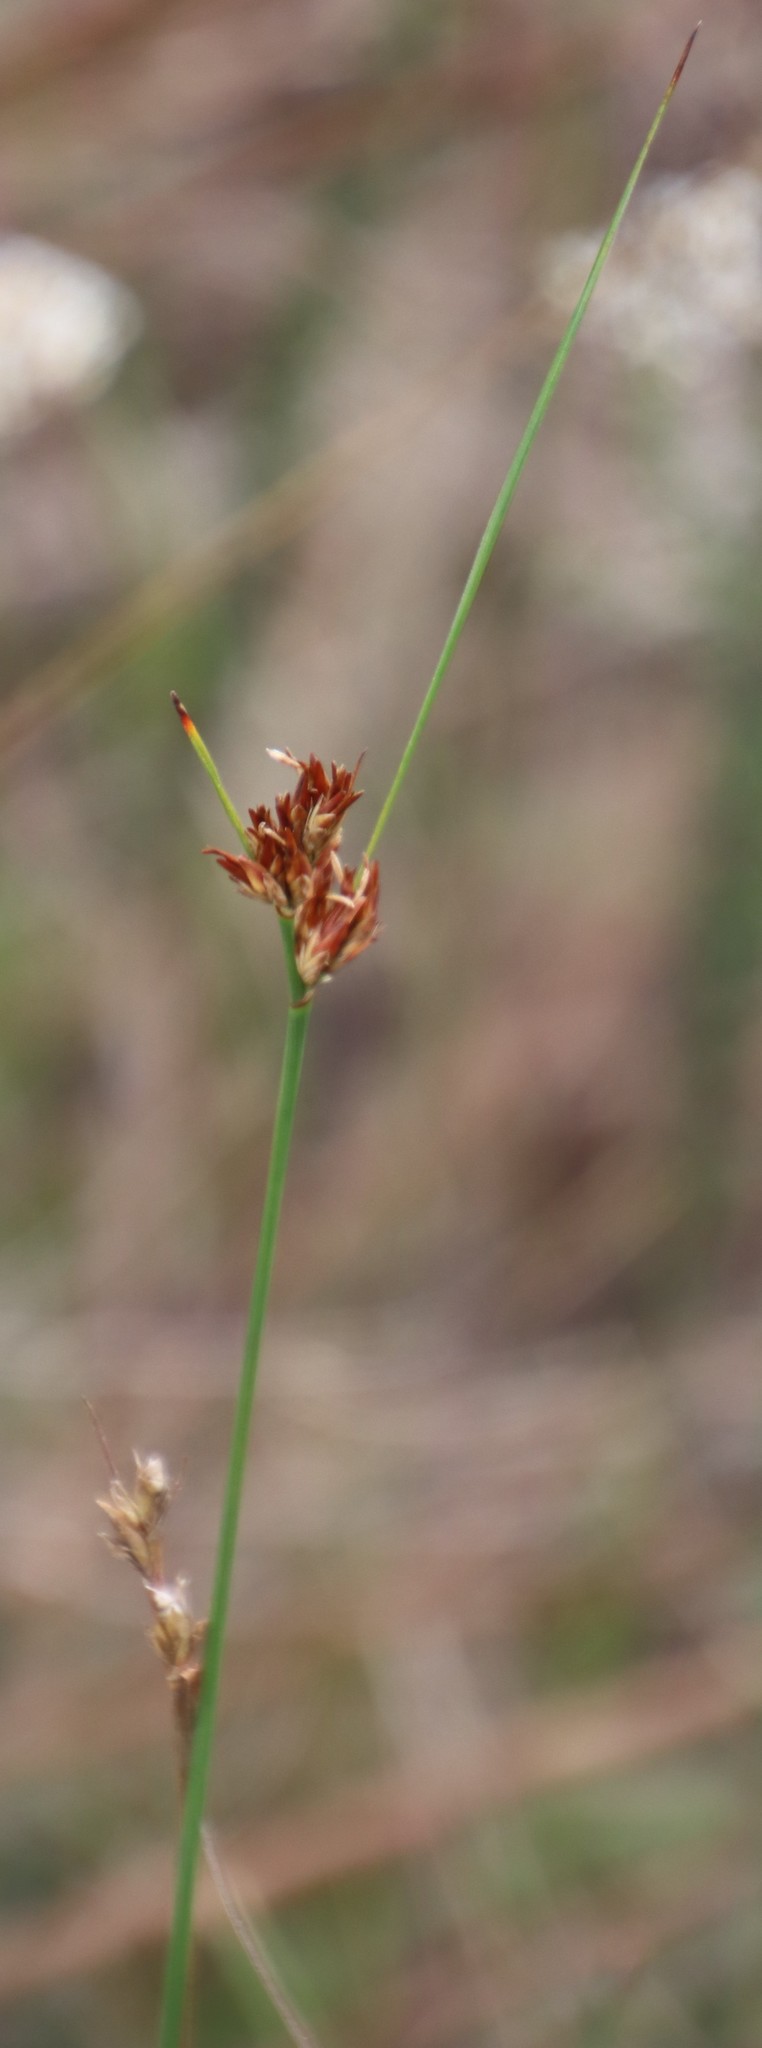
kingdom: Plantae
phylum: Tracheophyta
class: Liliopsida
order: Poales
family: Cyperaceae
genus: Schoenus
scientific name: Schoenus compar
